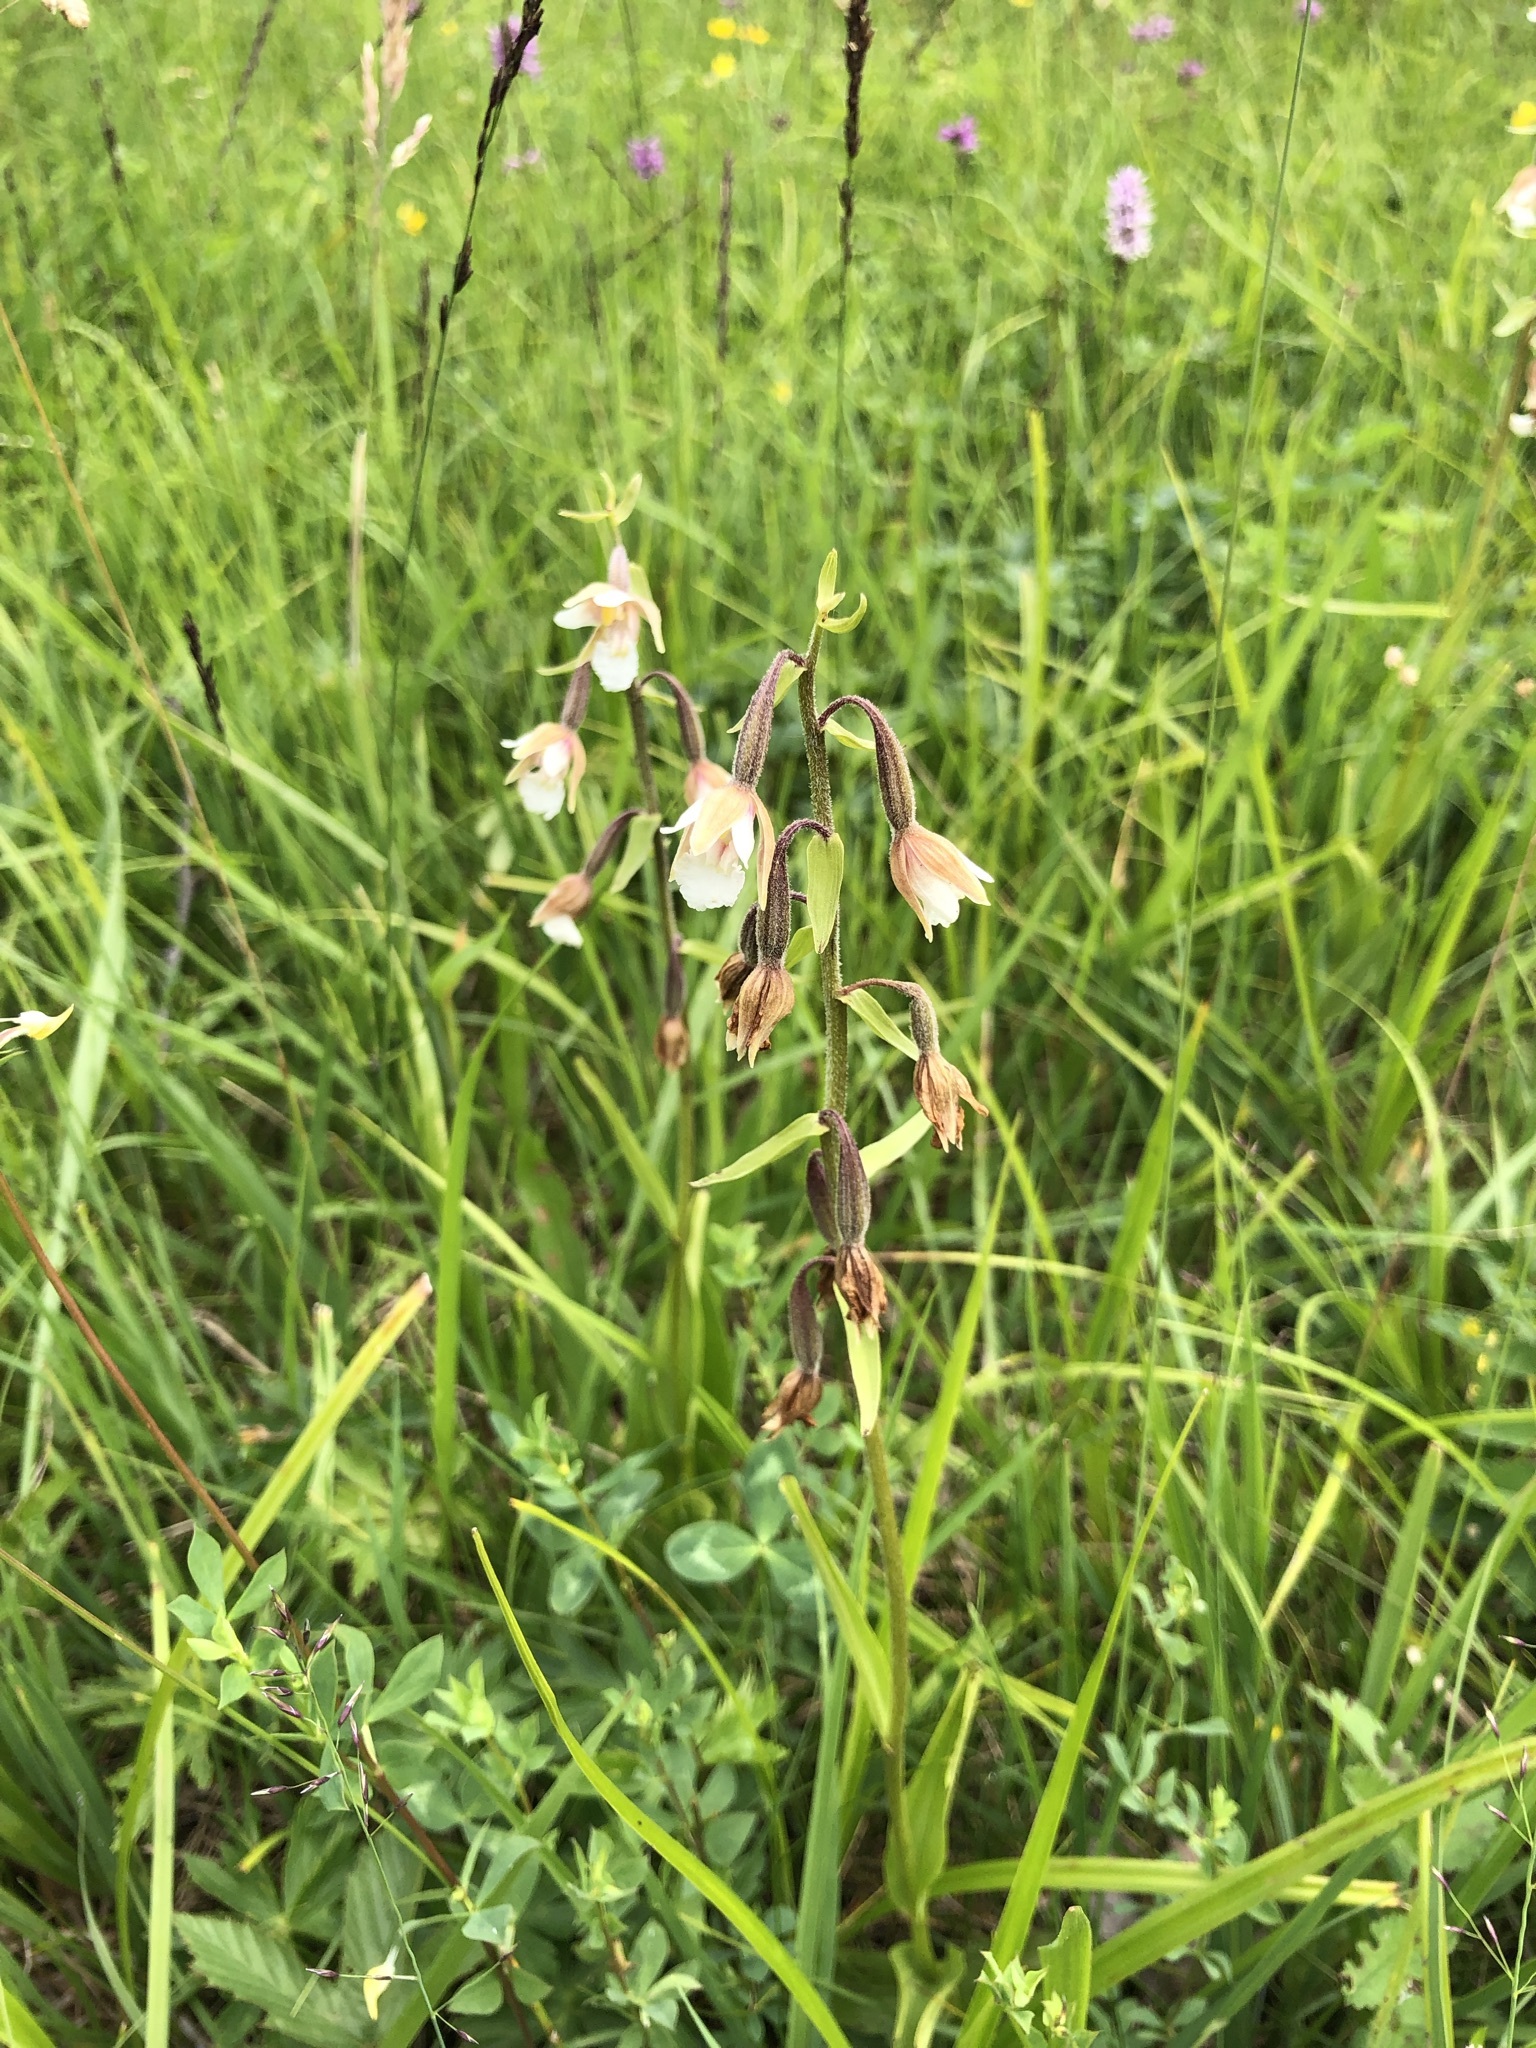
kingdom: Plantae
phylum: Tracheophyta
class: Liliopsida
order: Asparagales
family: Orchidaceae
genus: Epipactis
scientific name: Epipactis palustris
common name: Marsh helleborine
